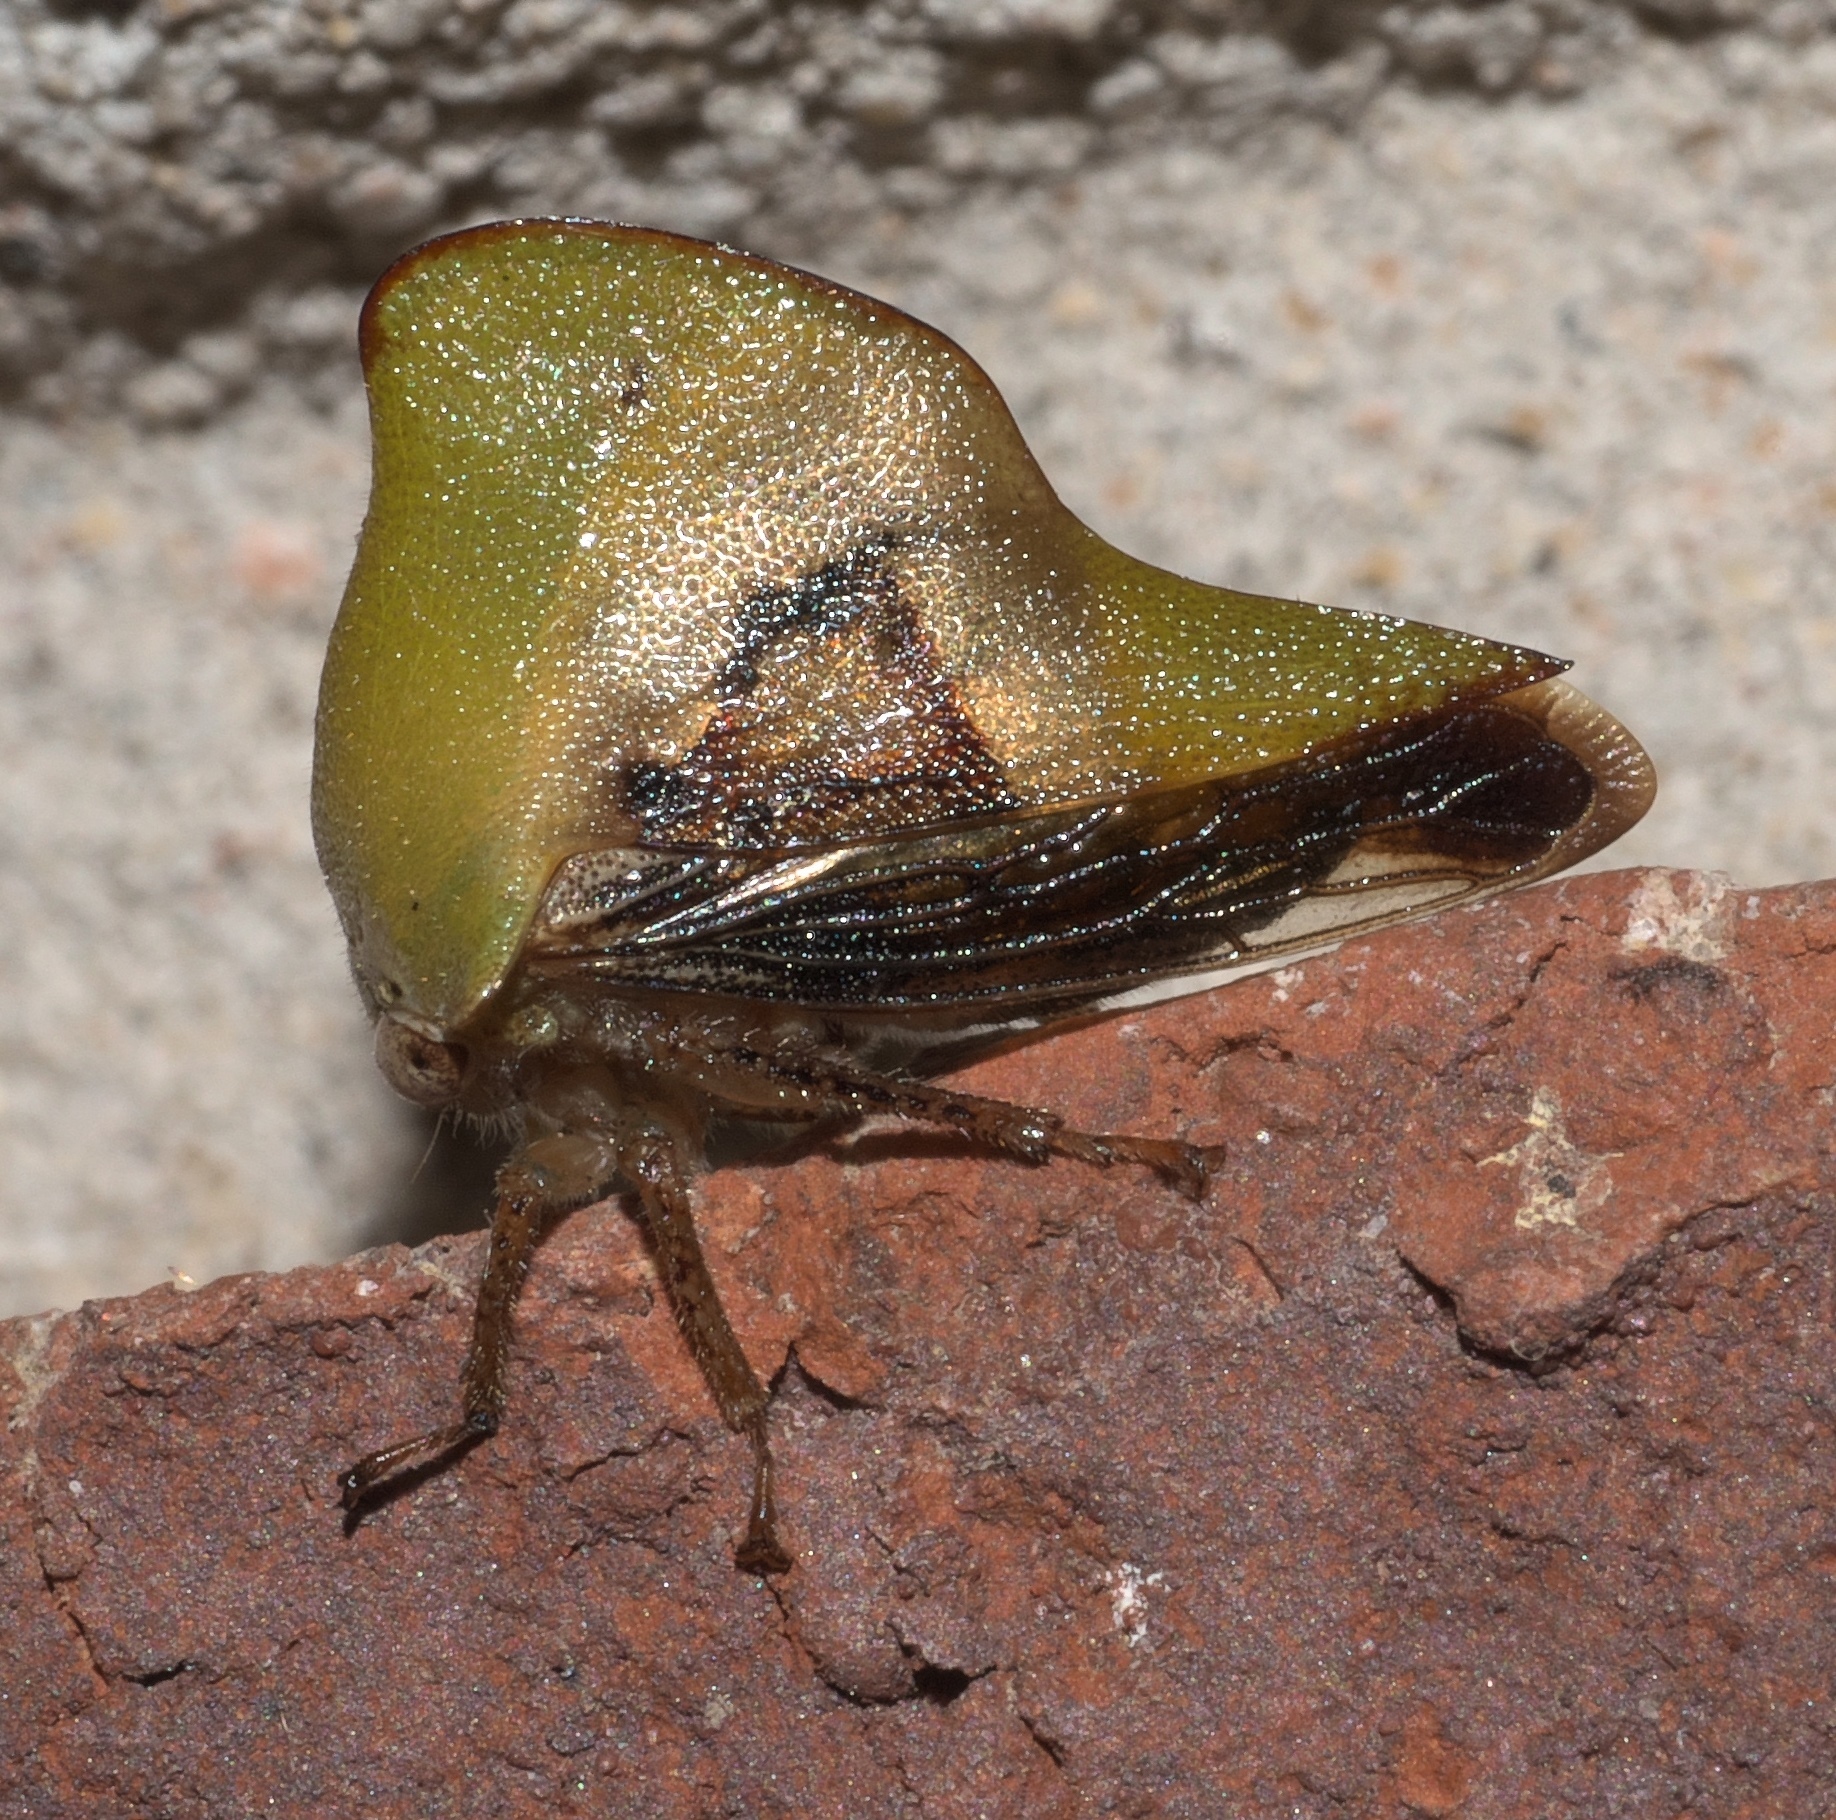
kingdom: Animalia
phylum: Arthropoda
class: Insecta
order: Hemiptera
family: Membracidae
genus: Helonica
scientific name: Helonica excelsa
